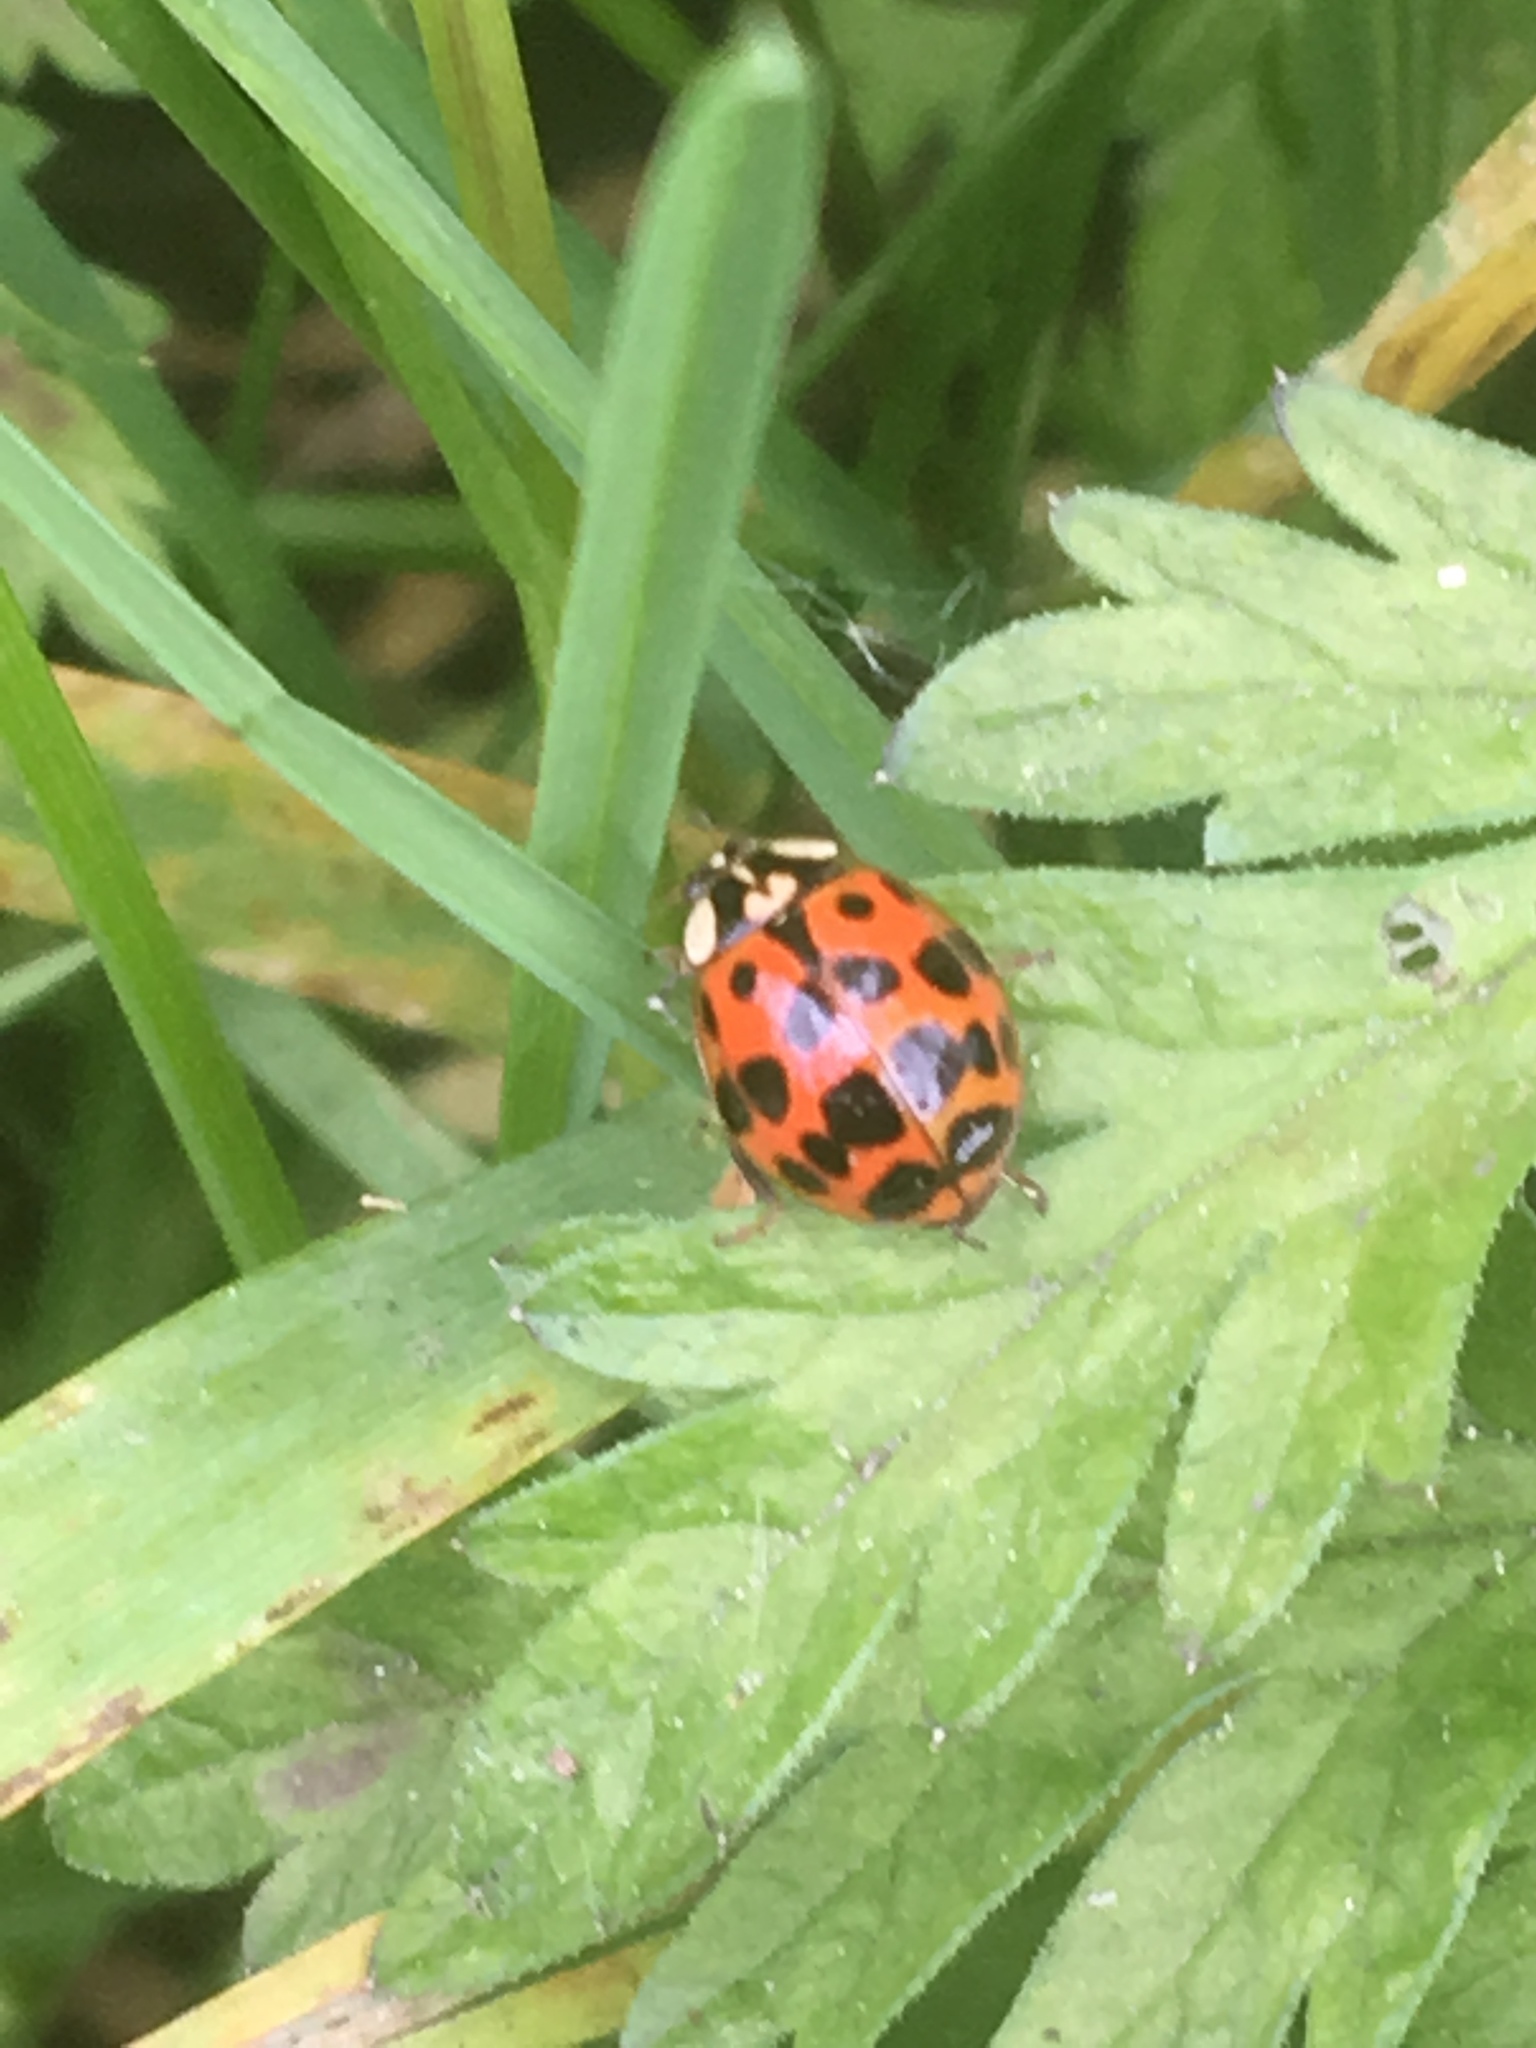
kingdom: Animalia
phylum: Arthropoda
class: Insecta
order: Coleoptera
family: Coccinellidae
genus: Harmonia
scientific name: Harmonia axyridis
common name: Harlequin ladybird
